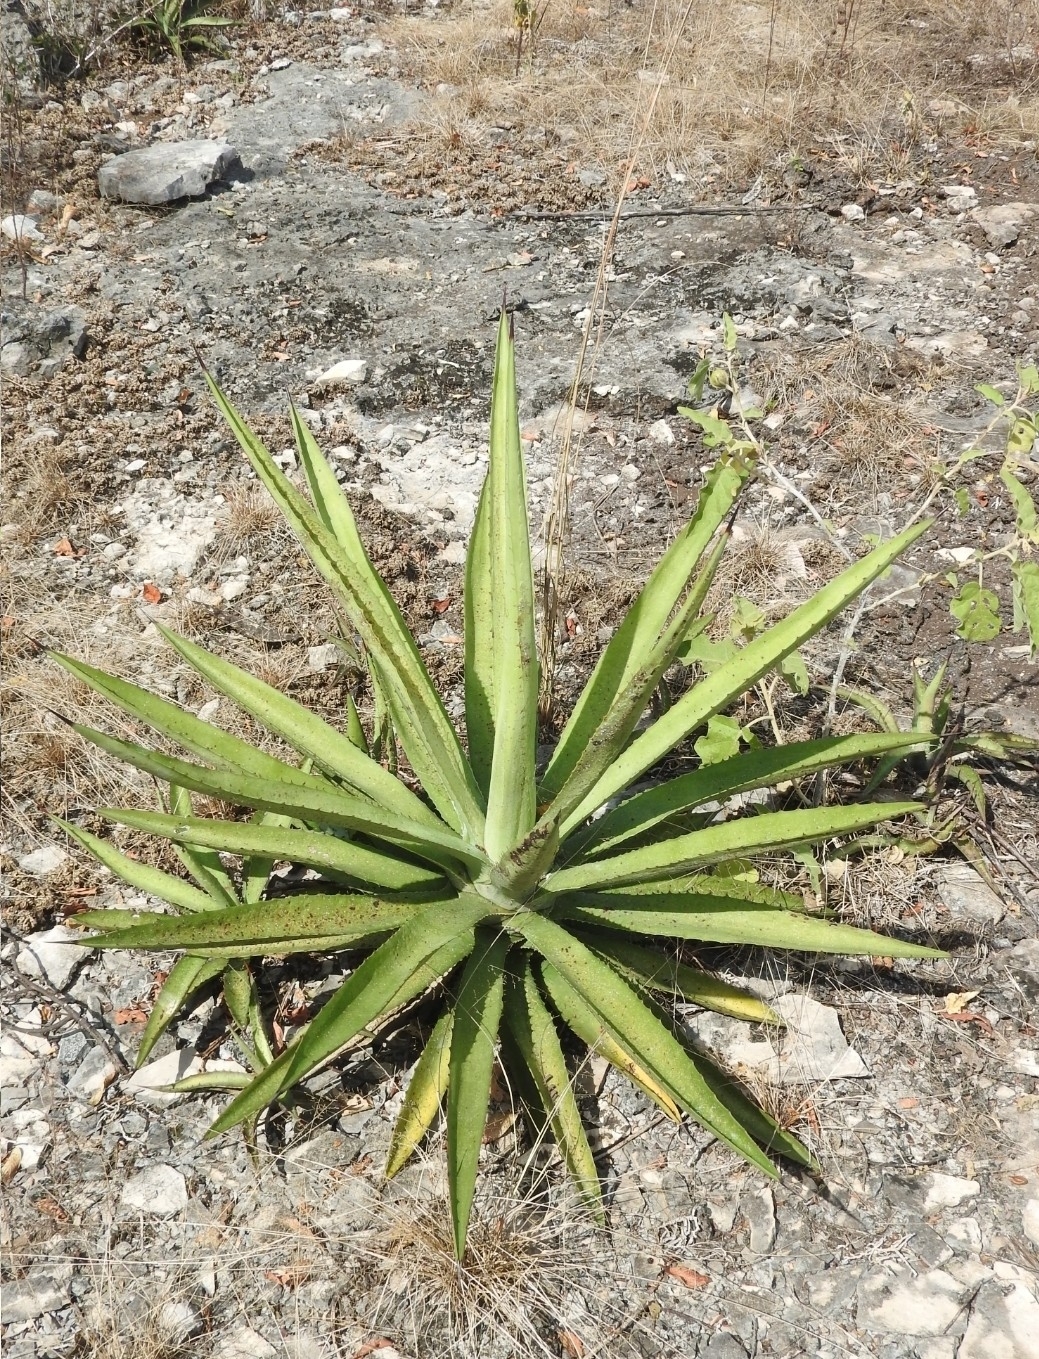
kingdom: Plantae
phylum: Tracheophyta
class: Liliopsida
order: Asparagales
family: Asparagaceae
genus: Agave
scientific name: Agave vivipara
